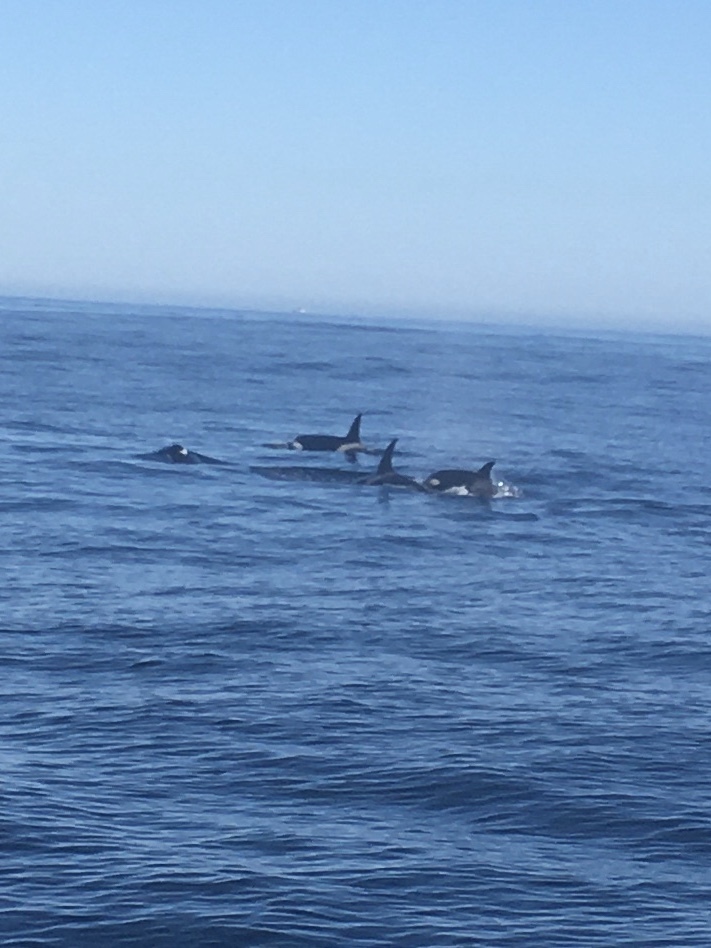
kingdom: Animalia
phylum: Chordata
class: Mammalia
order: Cetacea
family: Delphinidae
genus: Orcinus
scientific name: Orcinus orca
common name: Killer whale
